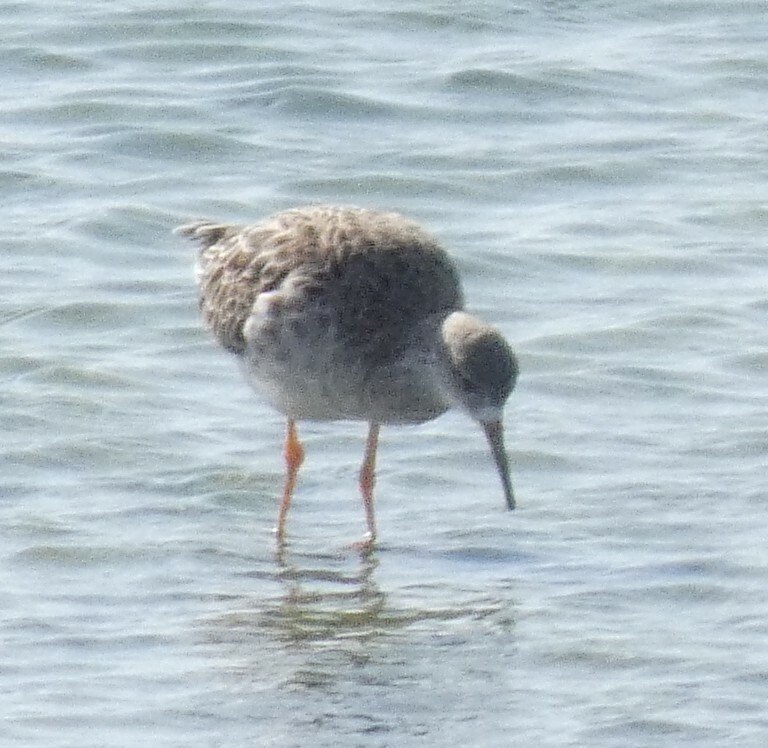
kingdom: Animalia
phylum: Chordata
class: Aves
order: Charadriiformes
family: Scolopacidae
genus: Calidris
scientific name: Calidris pugnax
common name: Ruff
